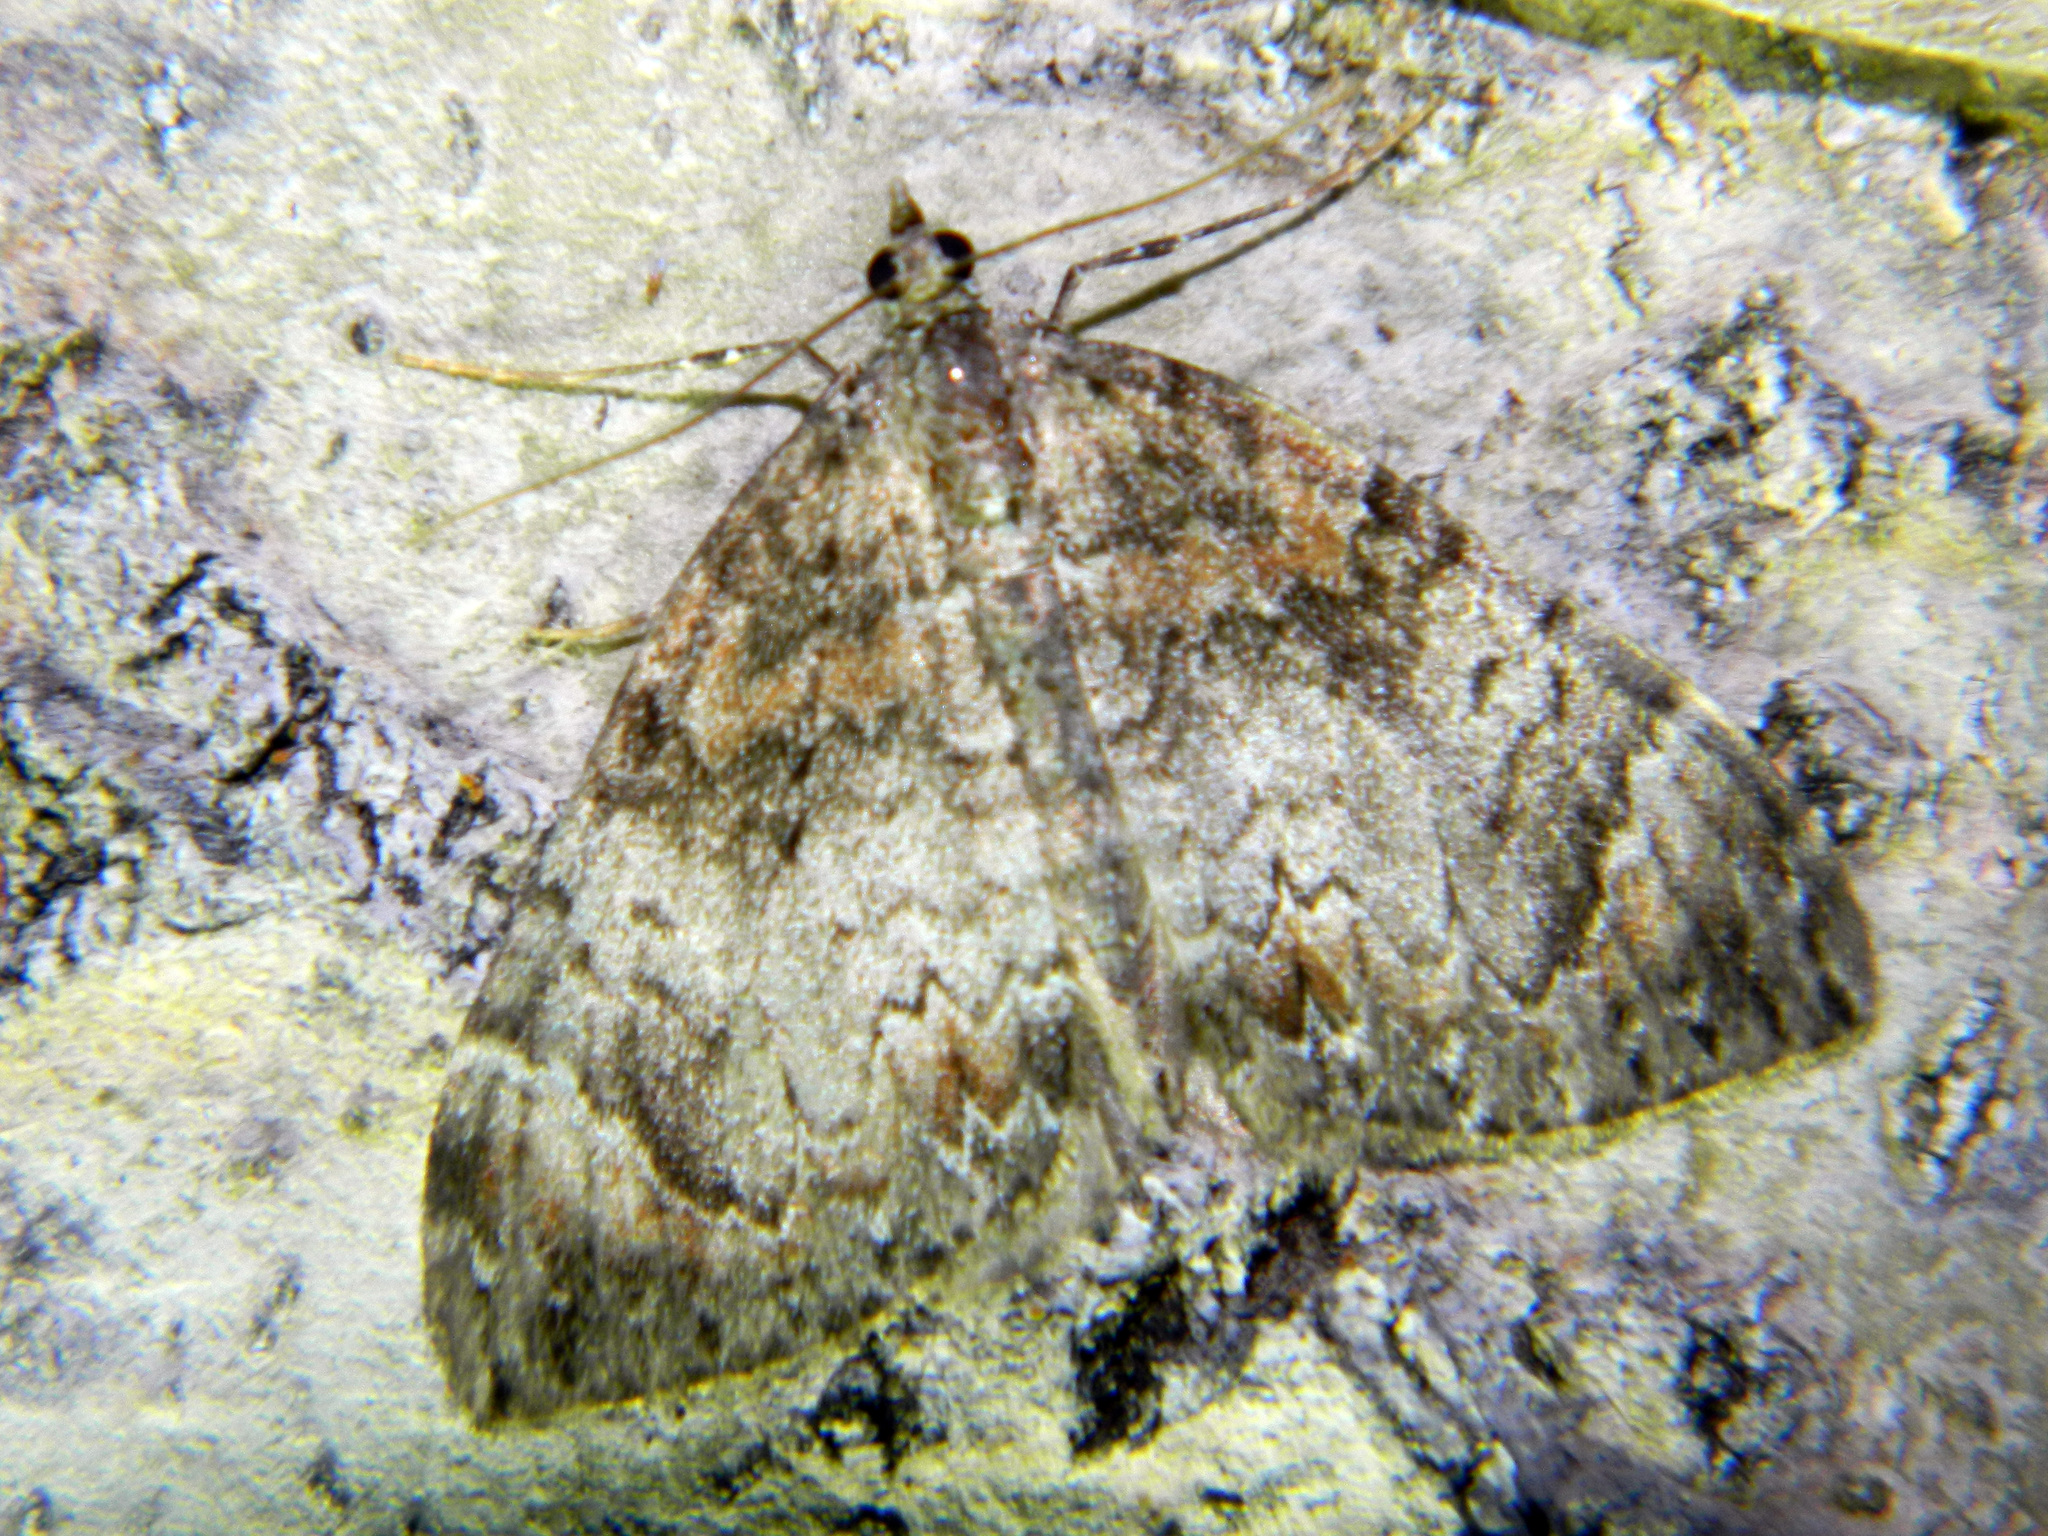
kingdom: Animalia
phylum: Arthropoda
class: Insecta
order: Lepidoptera
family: Geometridae
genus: Dysstroma
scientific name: Dysstroma citrata
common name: Dark marbled carpet
